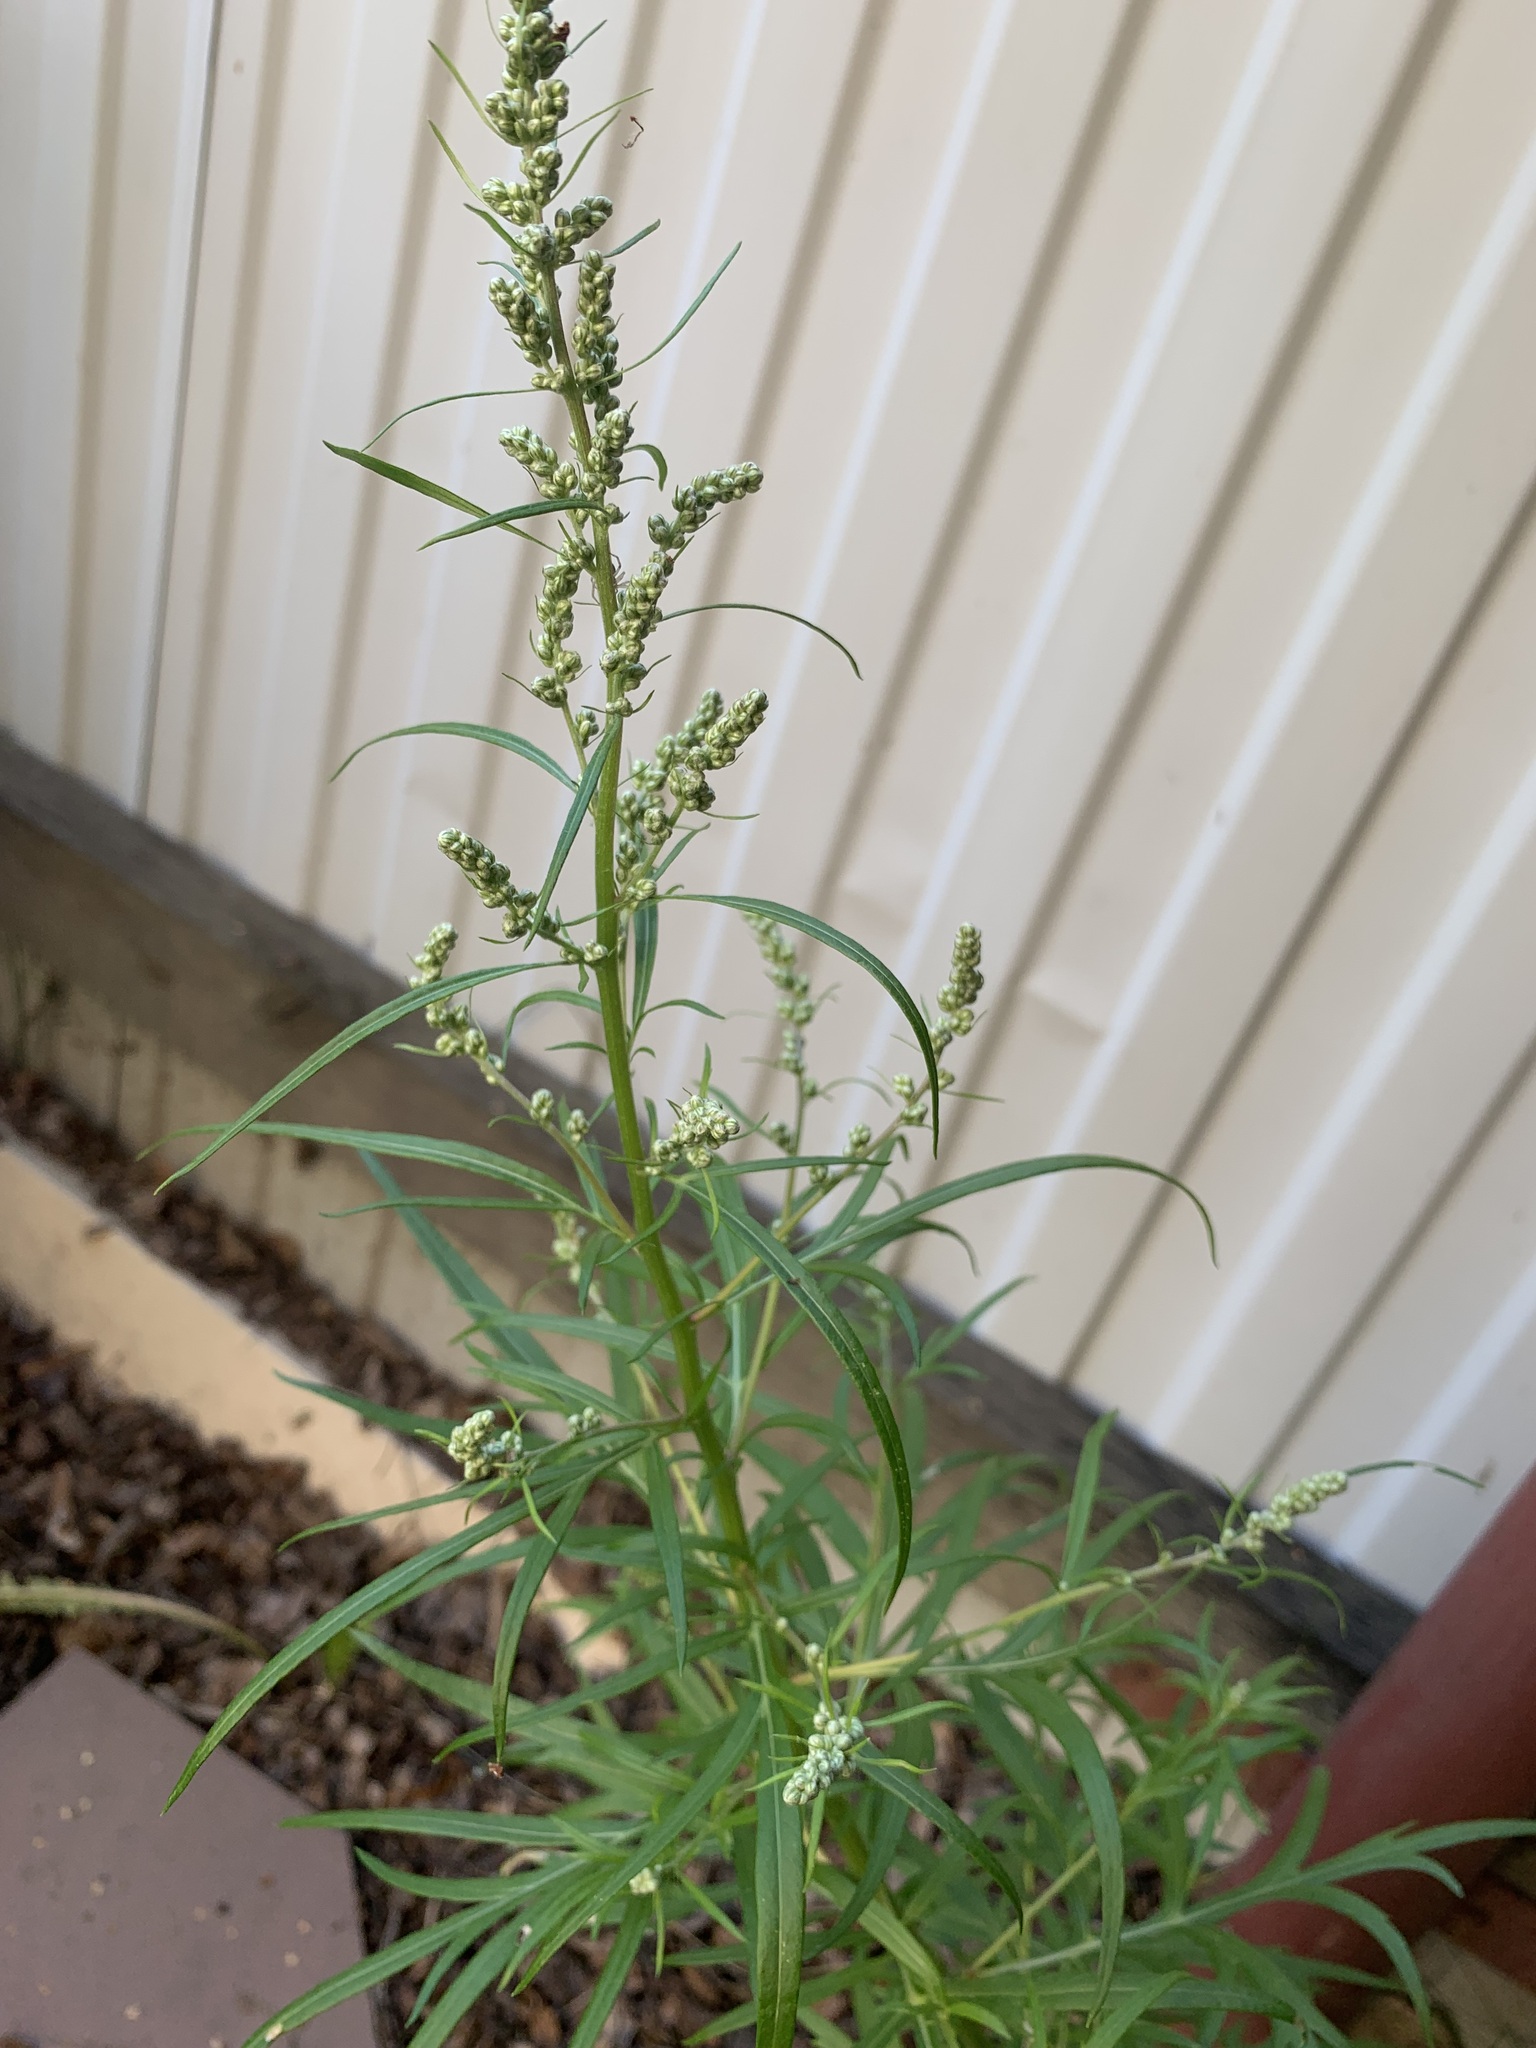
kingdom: Plantae
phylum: Tracheophyta
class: Magnoliopsida
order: Asterales
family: Asteraceae
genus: Artemisia
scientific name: Artemisia vulgaris
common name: Mugwort
